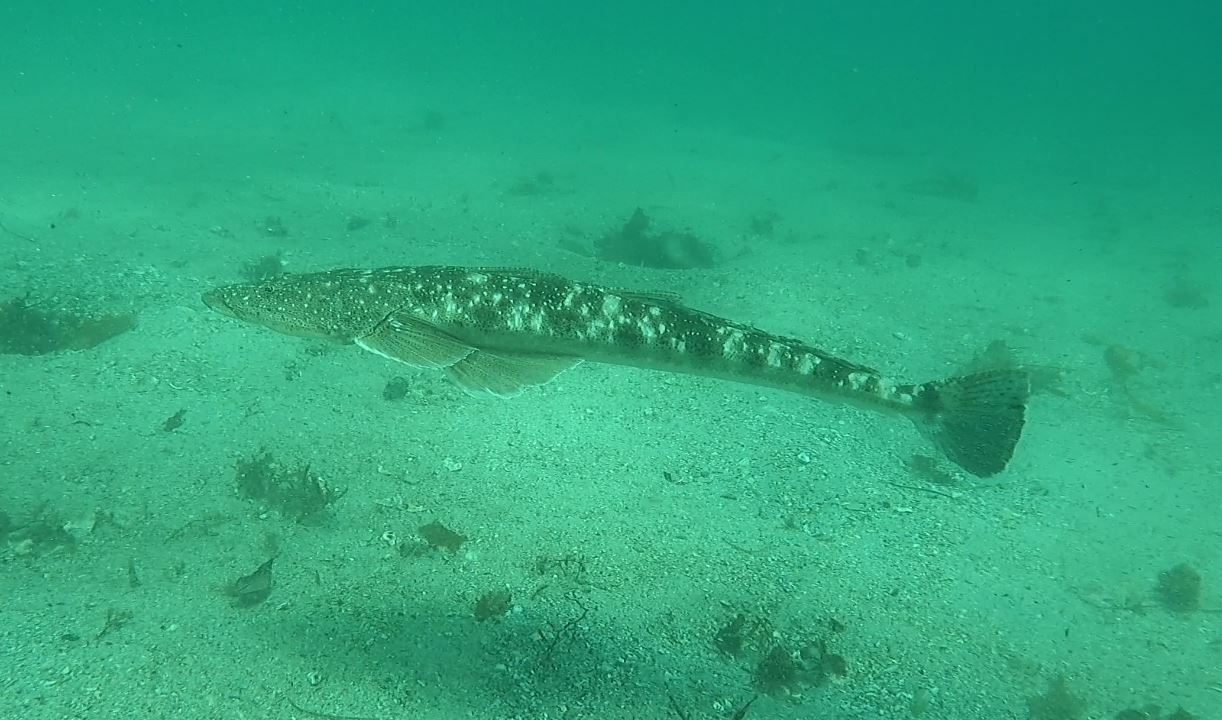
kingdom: Animalia
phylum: Chordata
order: Scorpaeniformes
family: Platycephalidae
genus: Platycephalus
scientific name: Platycephalus fuscus
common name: Dusky flathead
